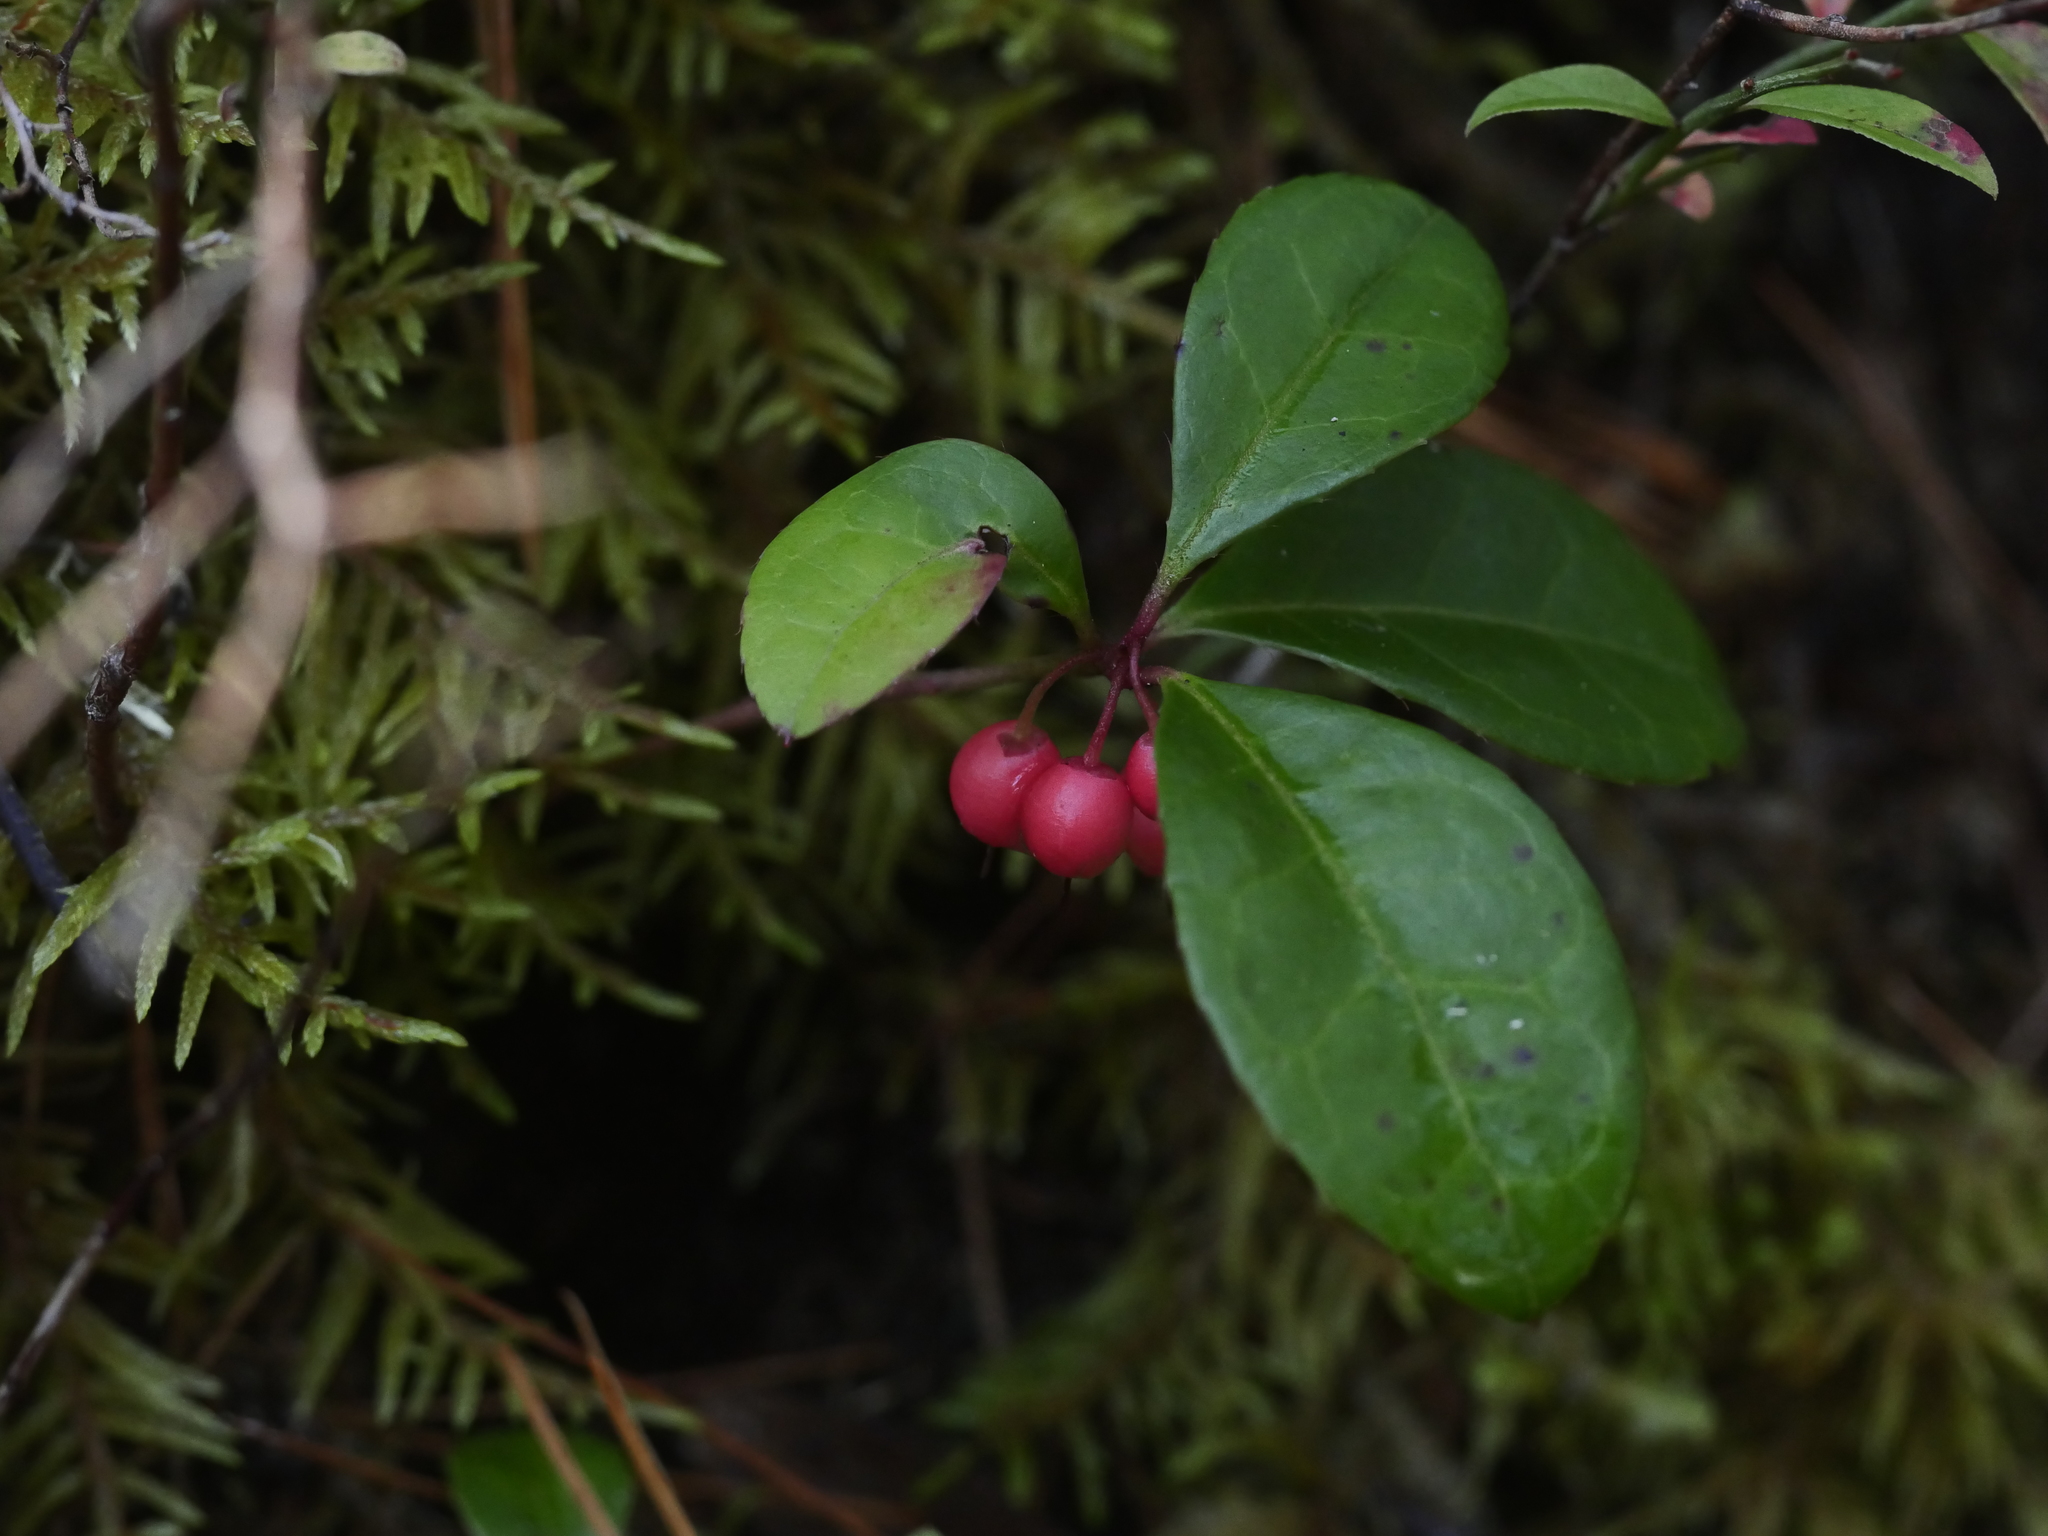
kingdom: Plantae
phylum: Tracheophyta
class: Magnoliopsida
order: Ericales
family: Ericaceae
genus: Gaultheria
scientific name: Gaultheria procumbens
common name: Checkerberry
